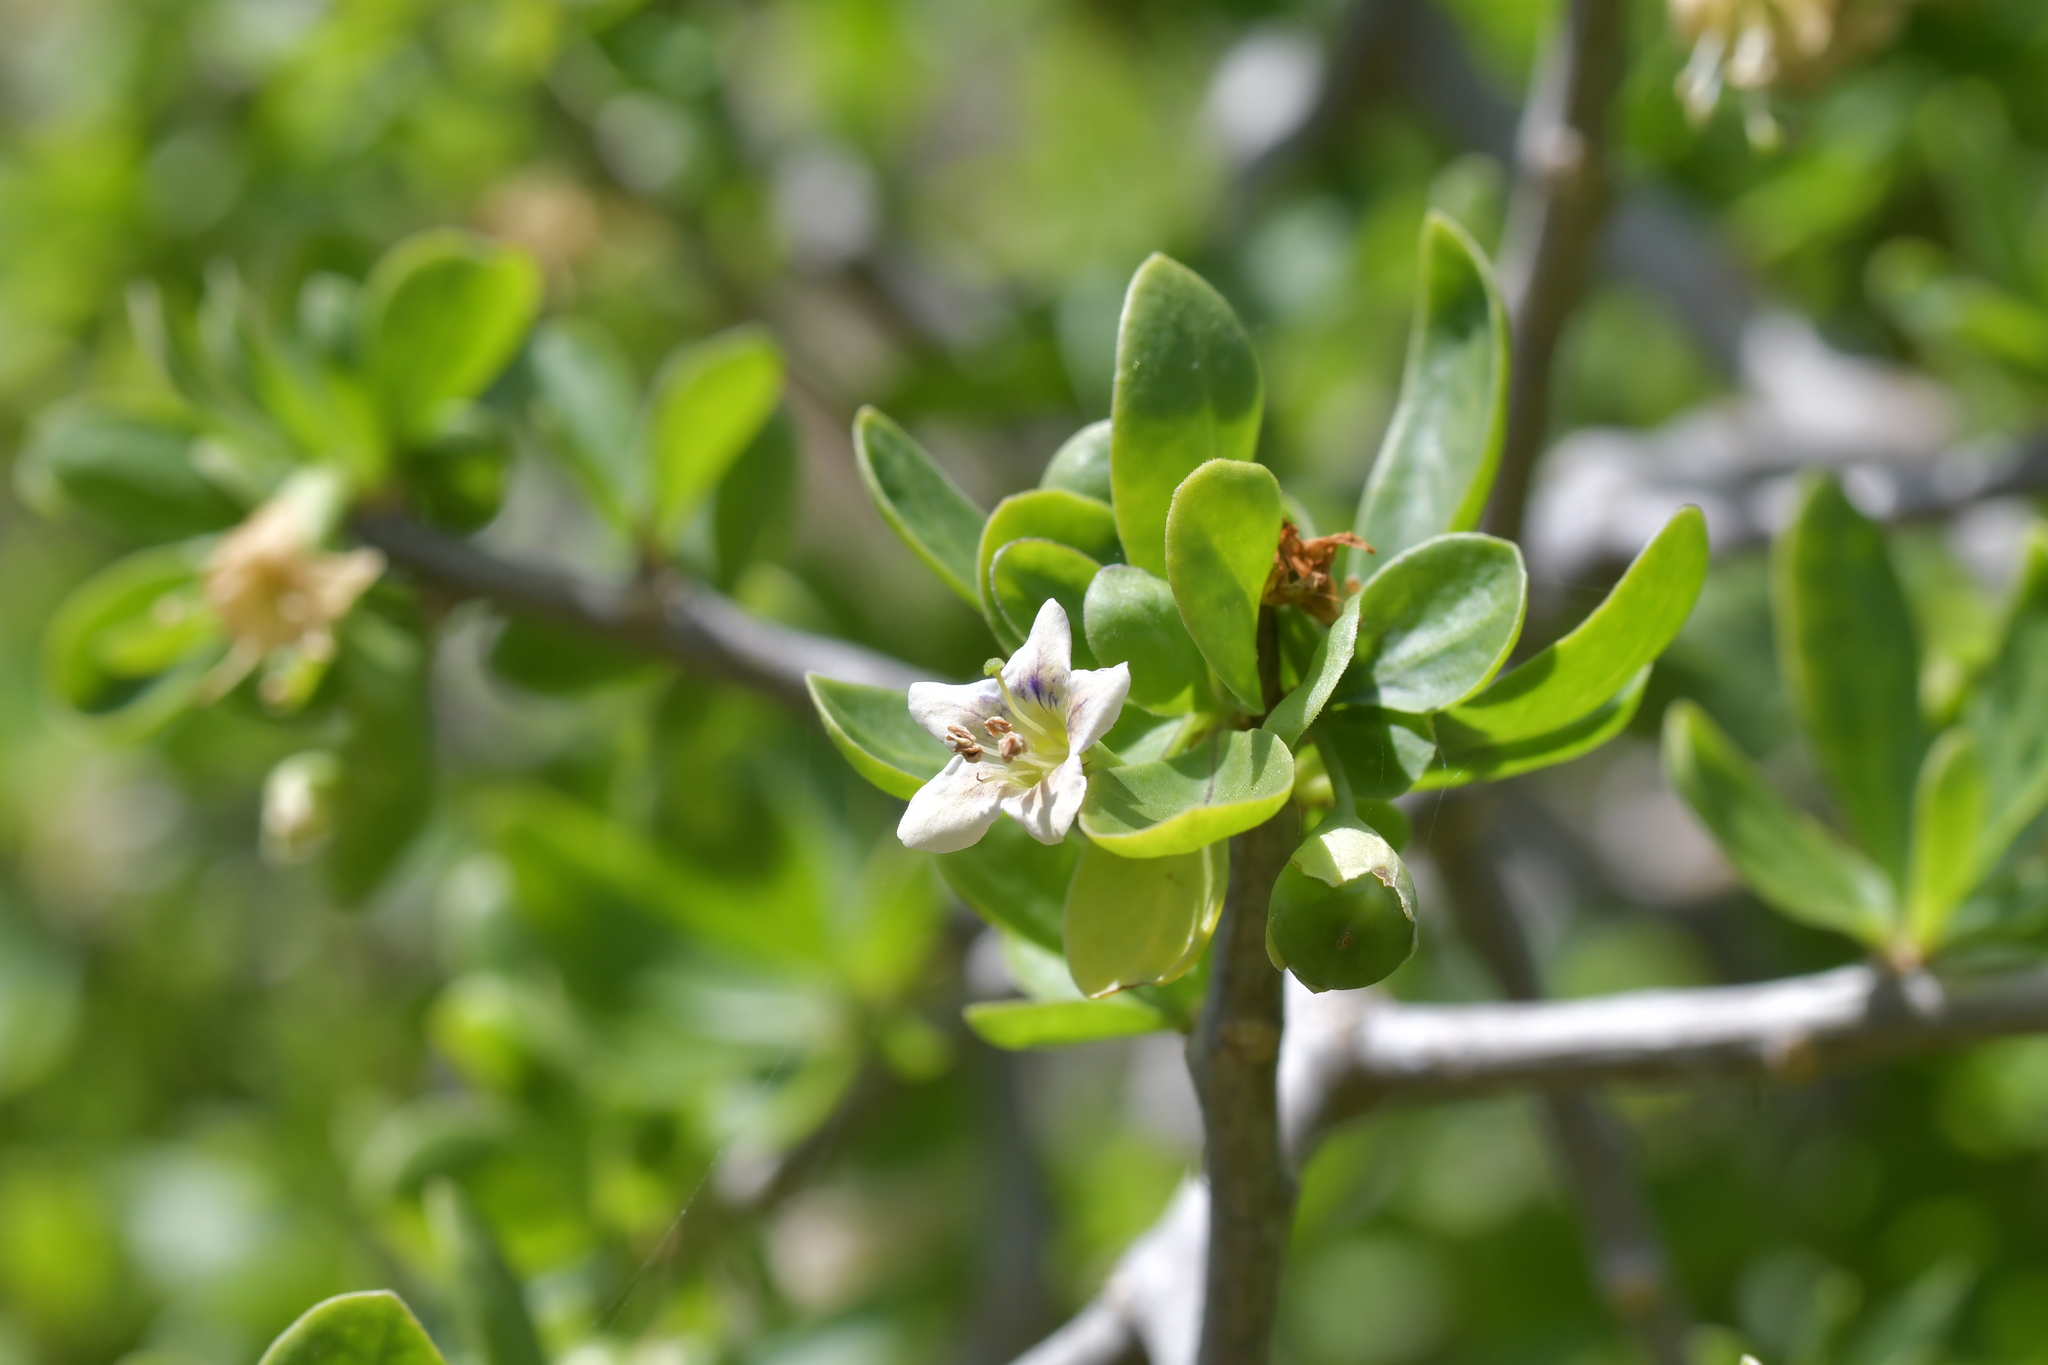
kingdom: Plantae
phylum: Tracheophyta
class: Magnoliopsida
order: Solanales
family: Solanaceae
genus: Lycium
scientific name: Lycium ferocissimum
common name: African boxthorn
